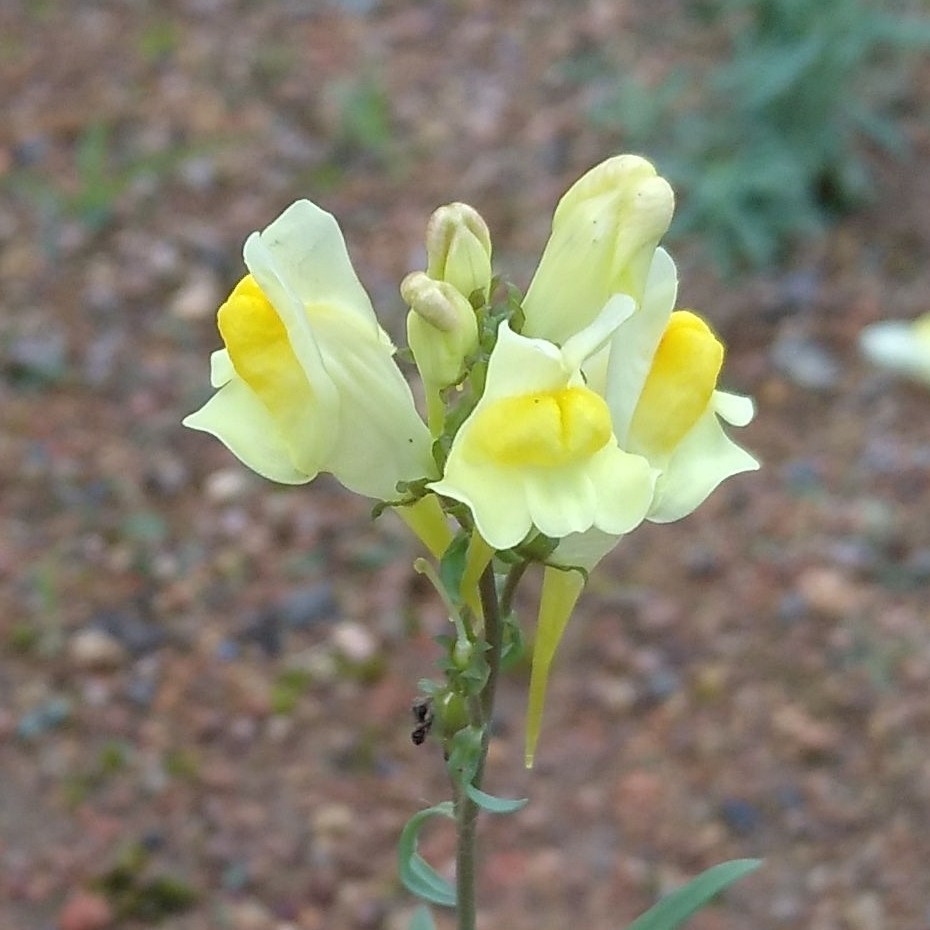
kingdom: Plantae
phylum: Tracheophyta
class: Magnoliopsida
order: Lamiales
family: Plantaginaceae
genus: Linaria
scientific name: Linaria vulgaris
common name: Butter and eggs
